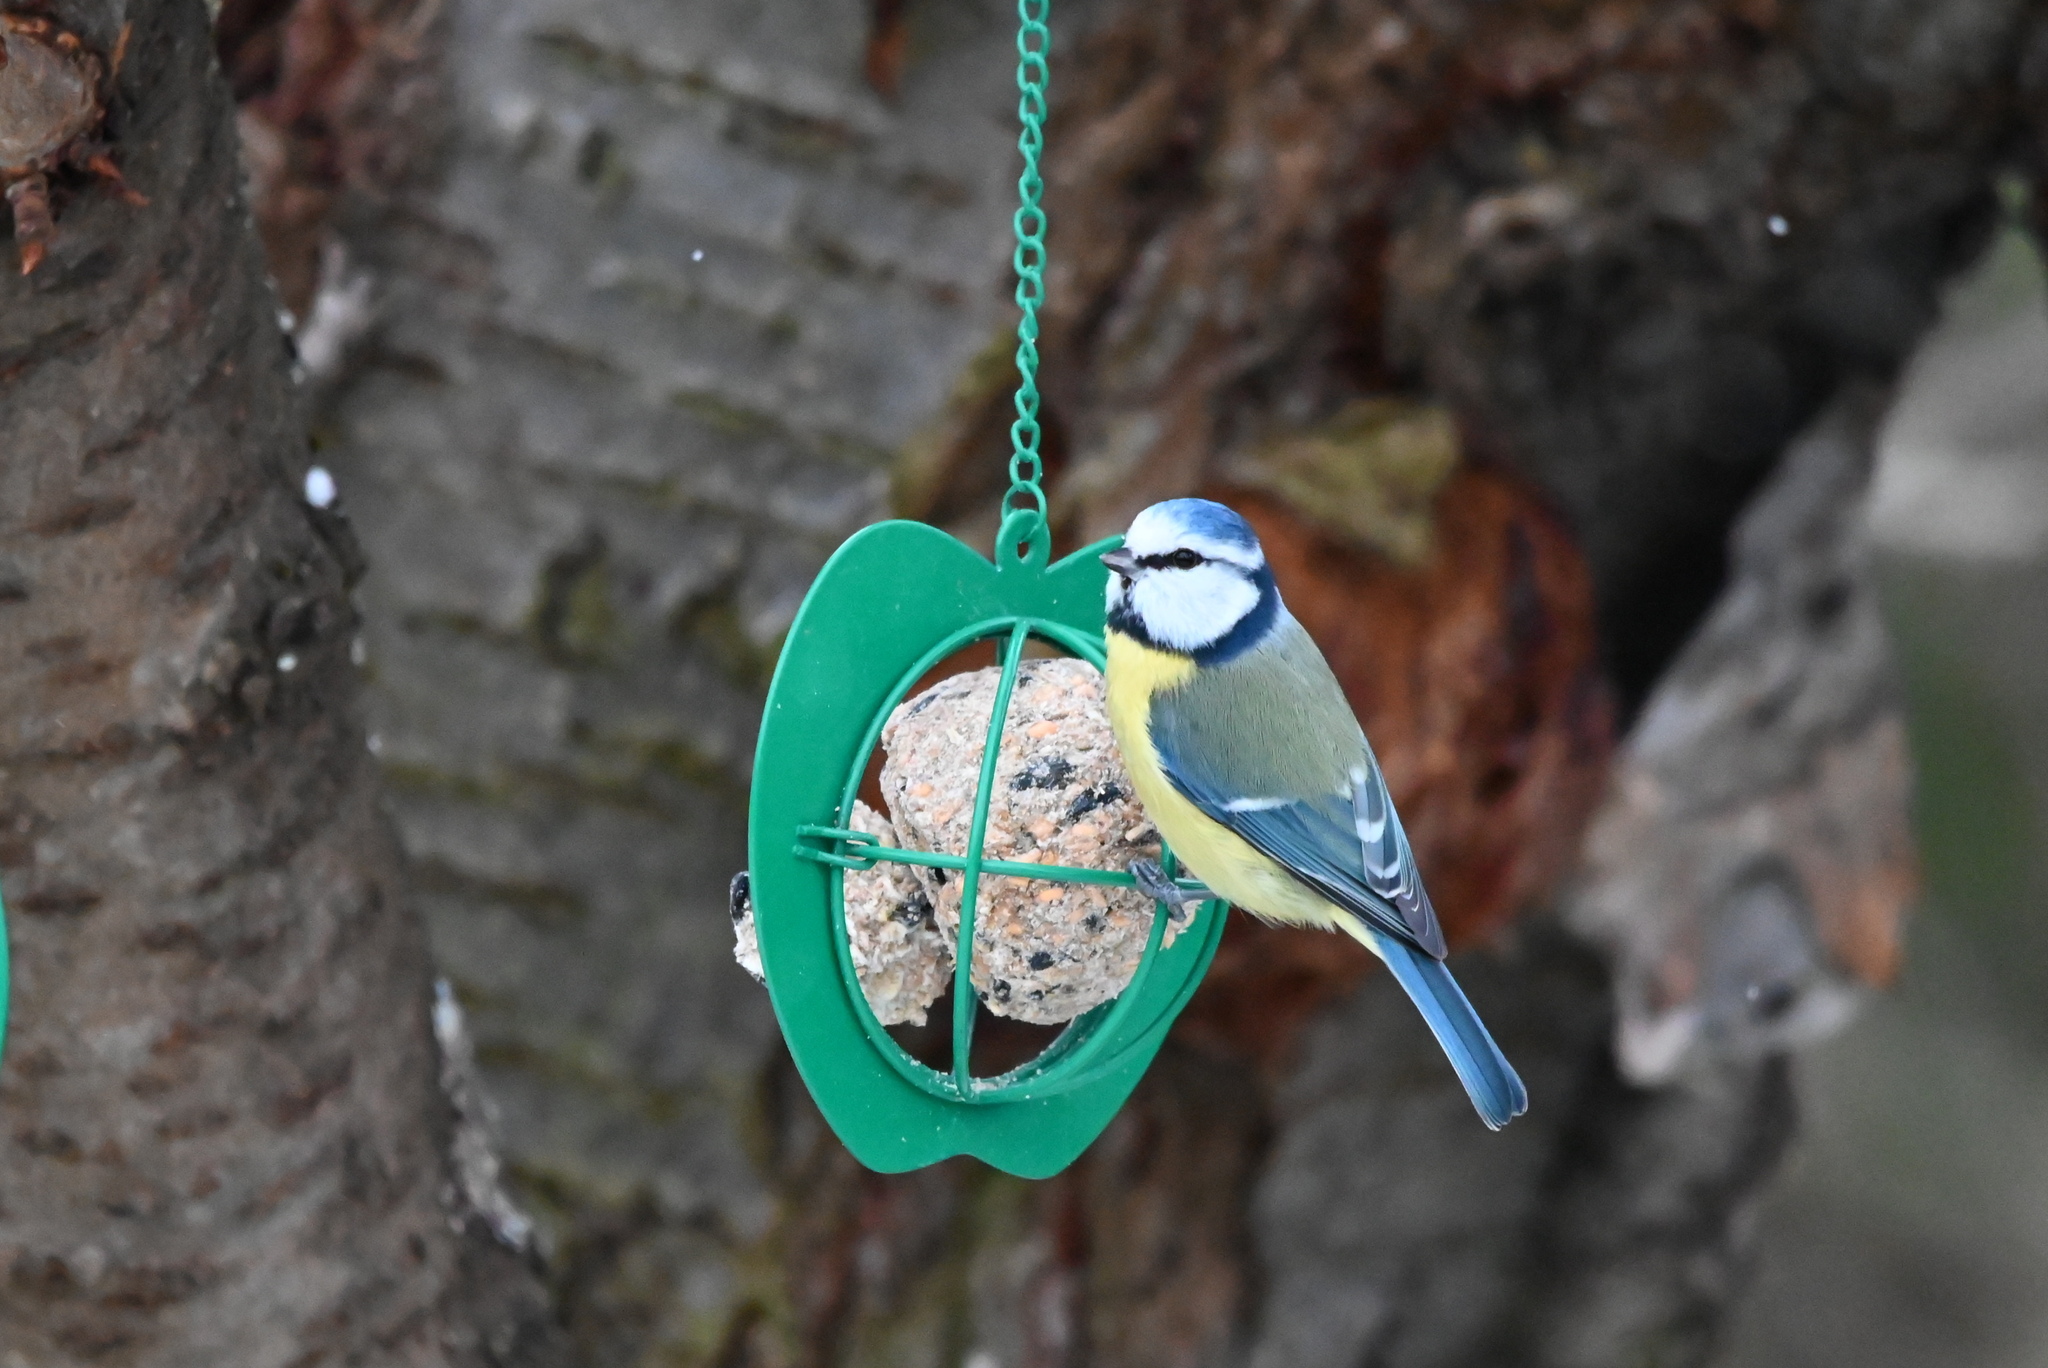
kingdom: Animalia
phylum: Chordata
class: Aves
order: Passeriformes
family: Paridae
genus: Cyanistes
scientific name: Cyanistes caeruleus
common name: Eurasian blue tit
